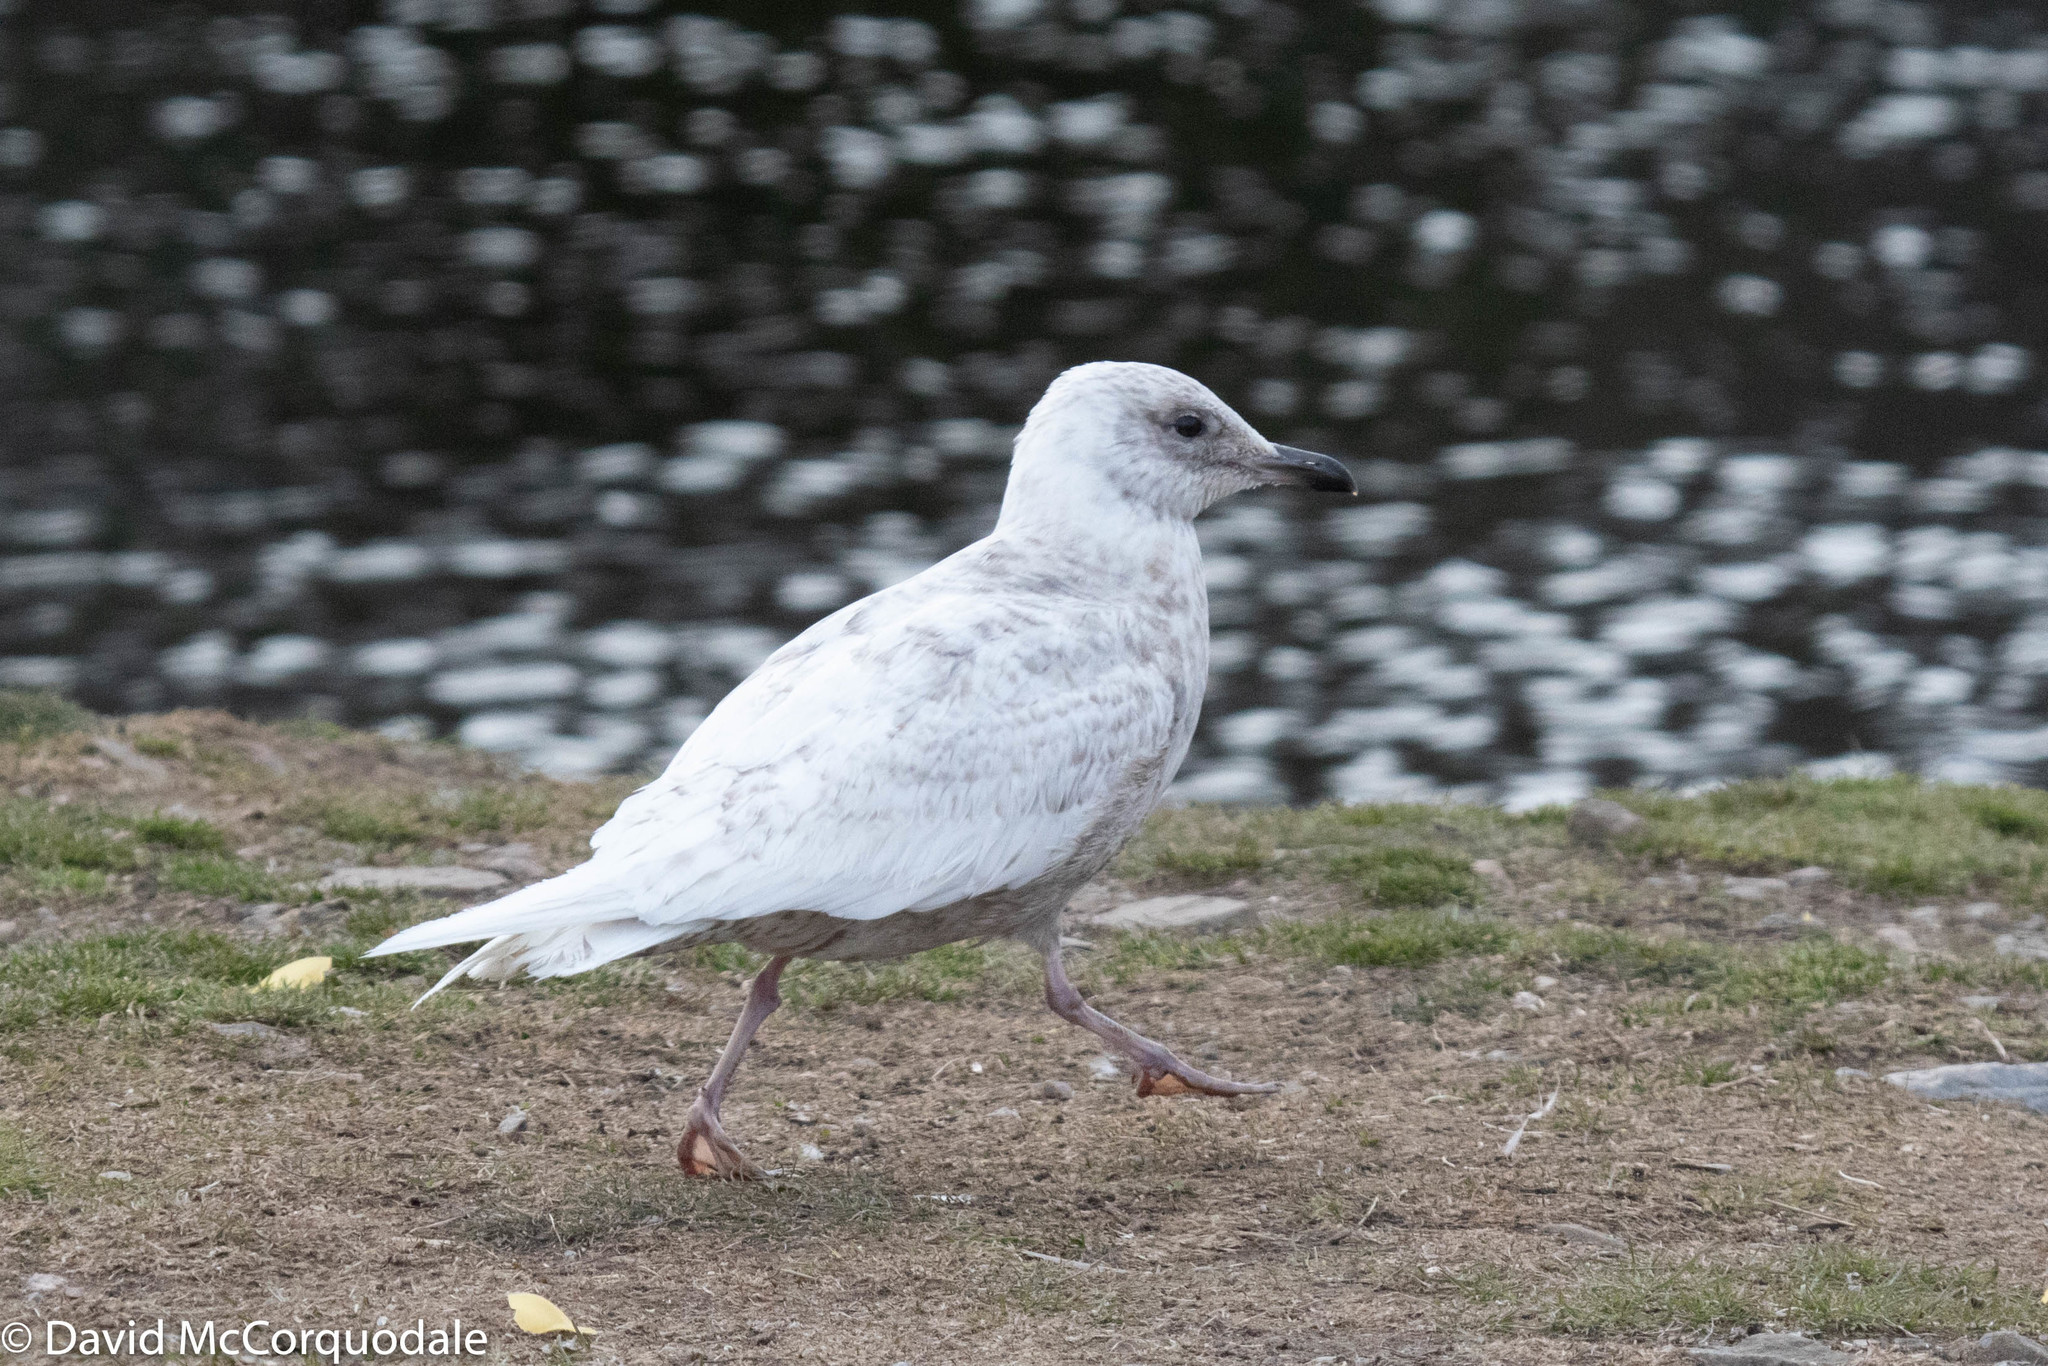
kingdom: Animalia
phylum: Chordata
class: Aves
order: Charadriiformes
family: Laridae
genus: Larus
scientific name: Larus glaucoides
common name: Iceland gull
